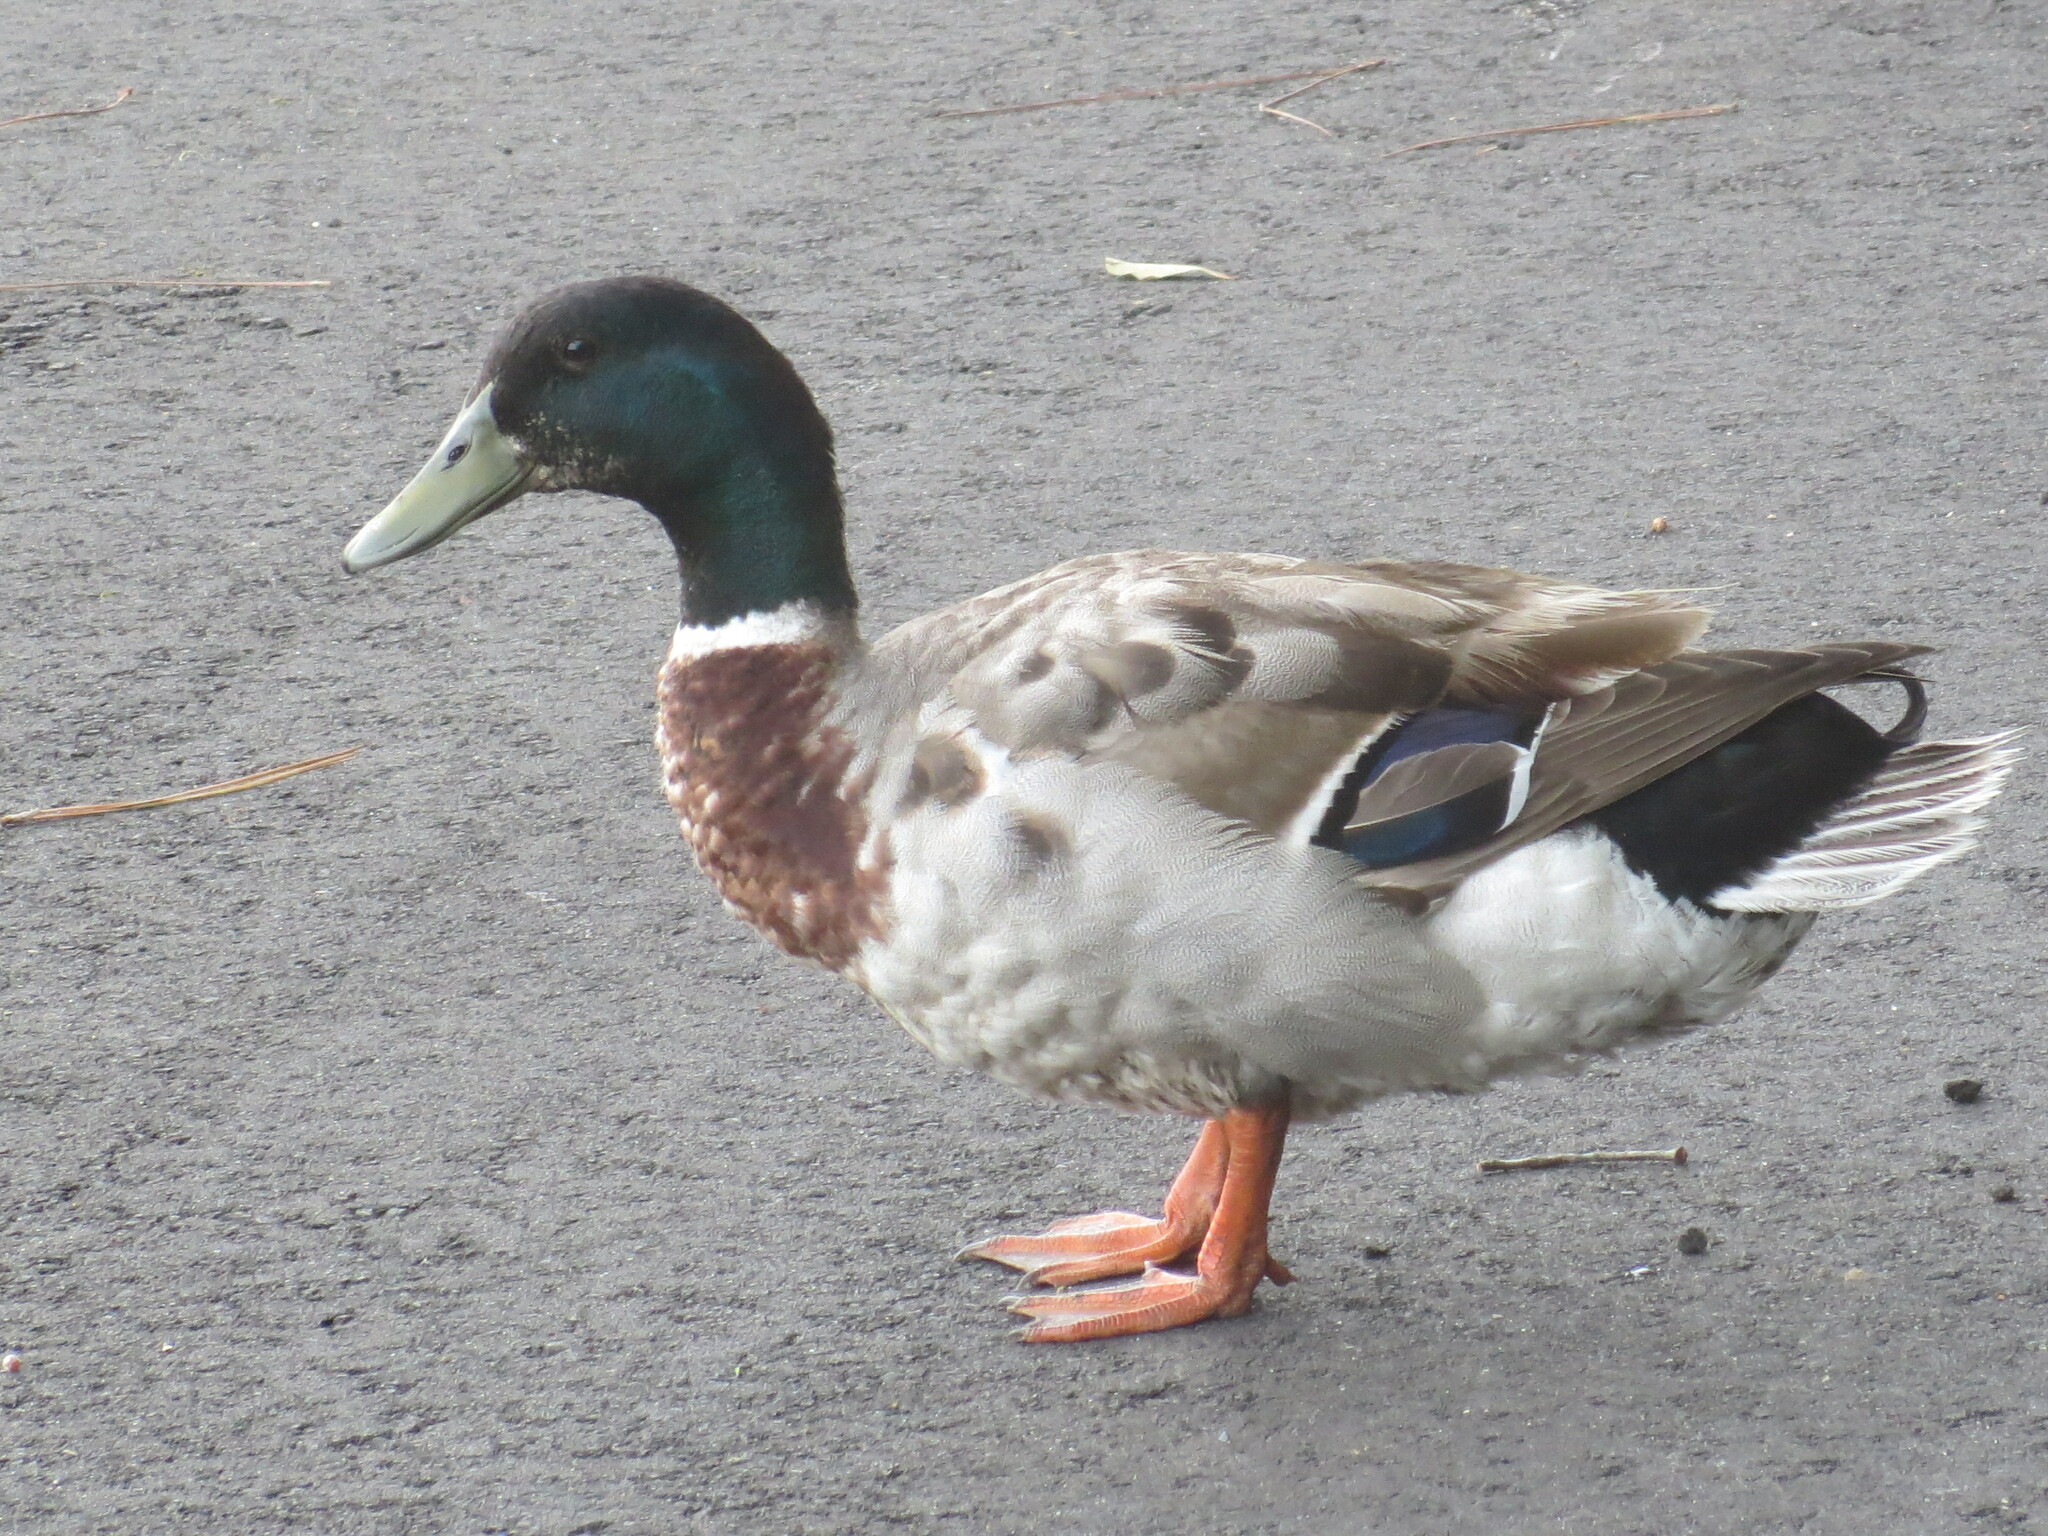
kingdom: Animalia
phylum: Chordata
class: Aves
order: Anseriformes
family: Anatidae
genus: Anas
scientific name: Anas platyrhynchos
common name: Mallard
